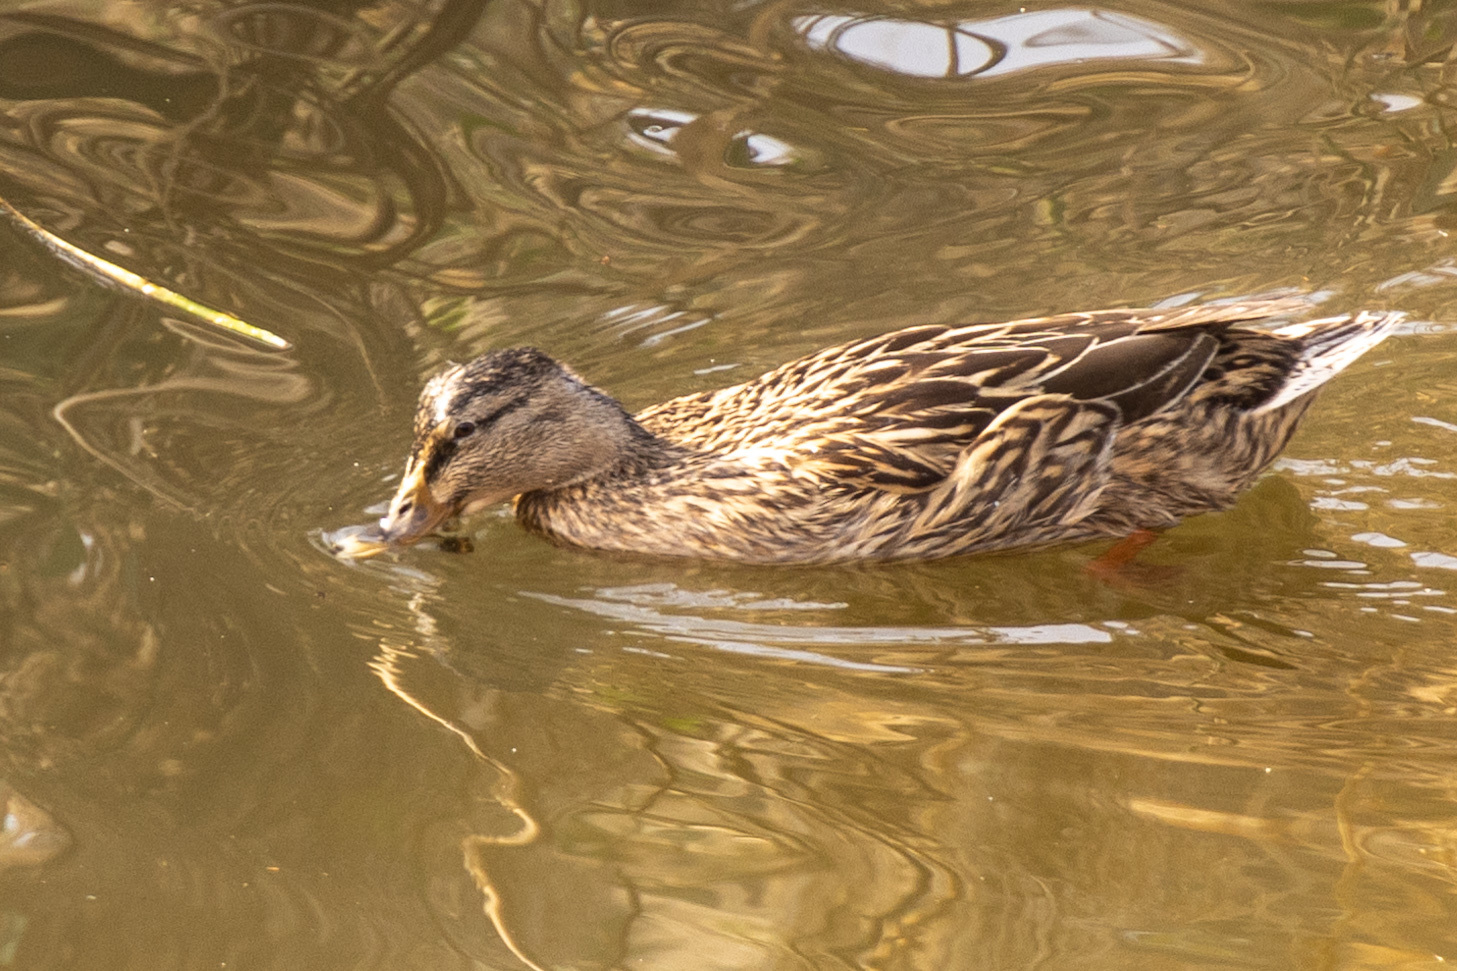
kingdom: Animalia
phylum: Chordata
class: Aves
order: Anseriformes
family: Anatidae
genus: Anas
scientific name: Anas platyrhynchos
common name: Mallard
